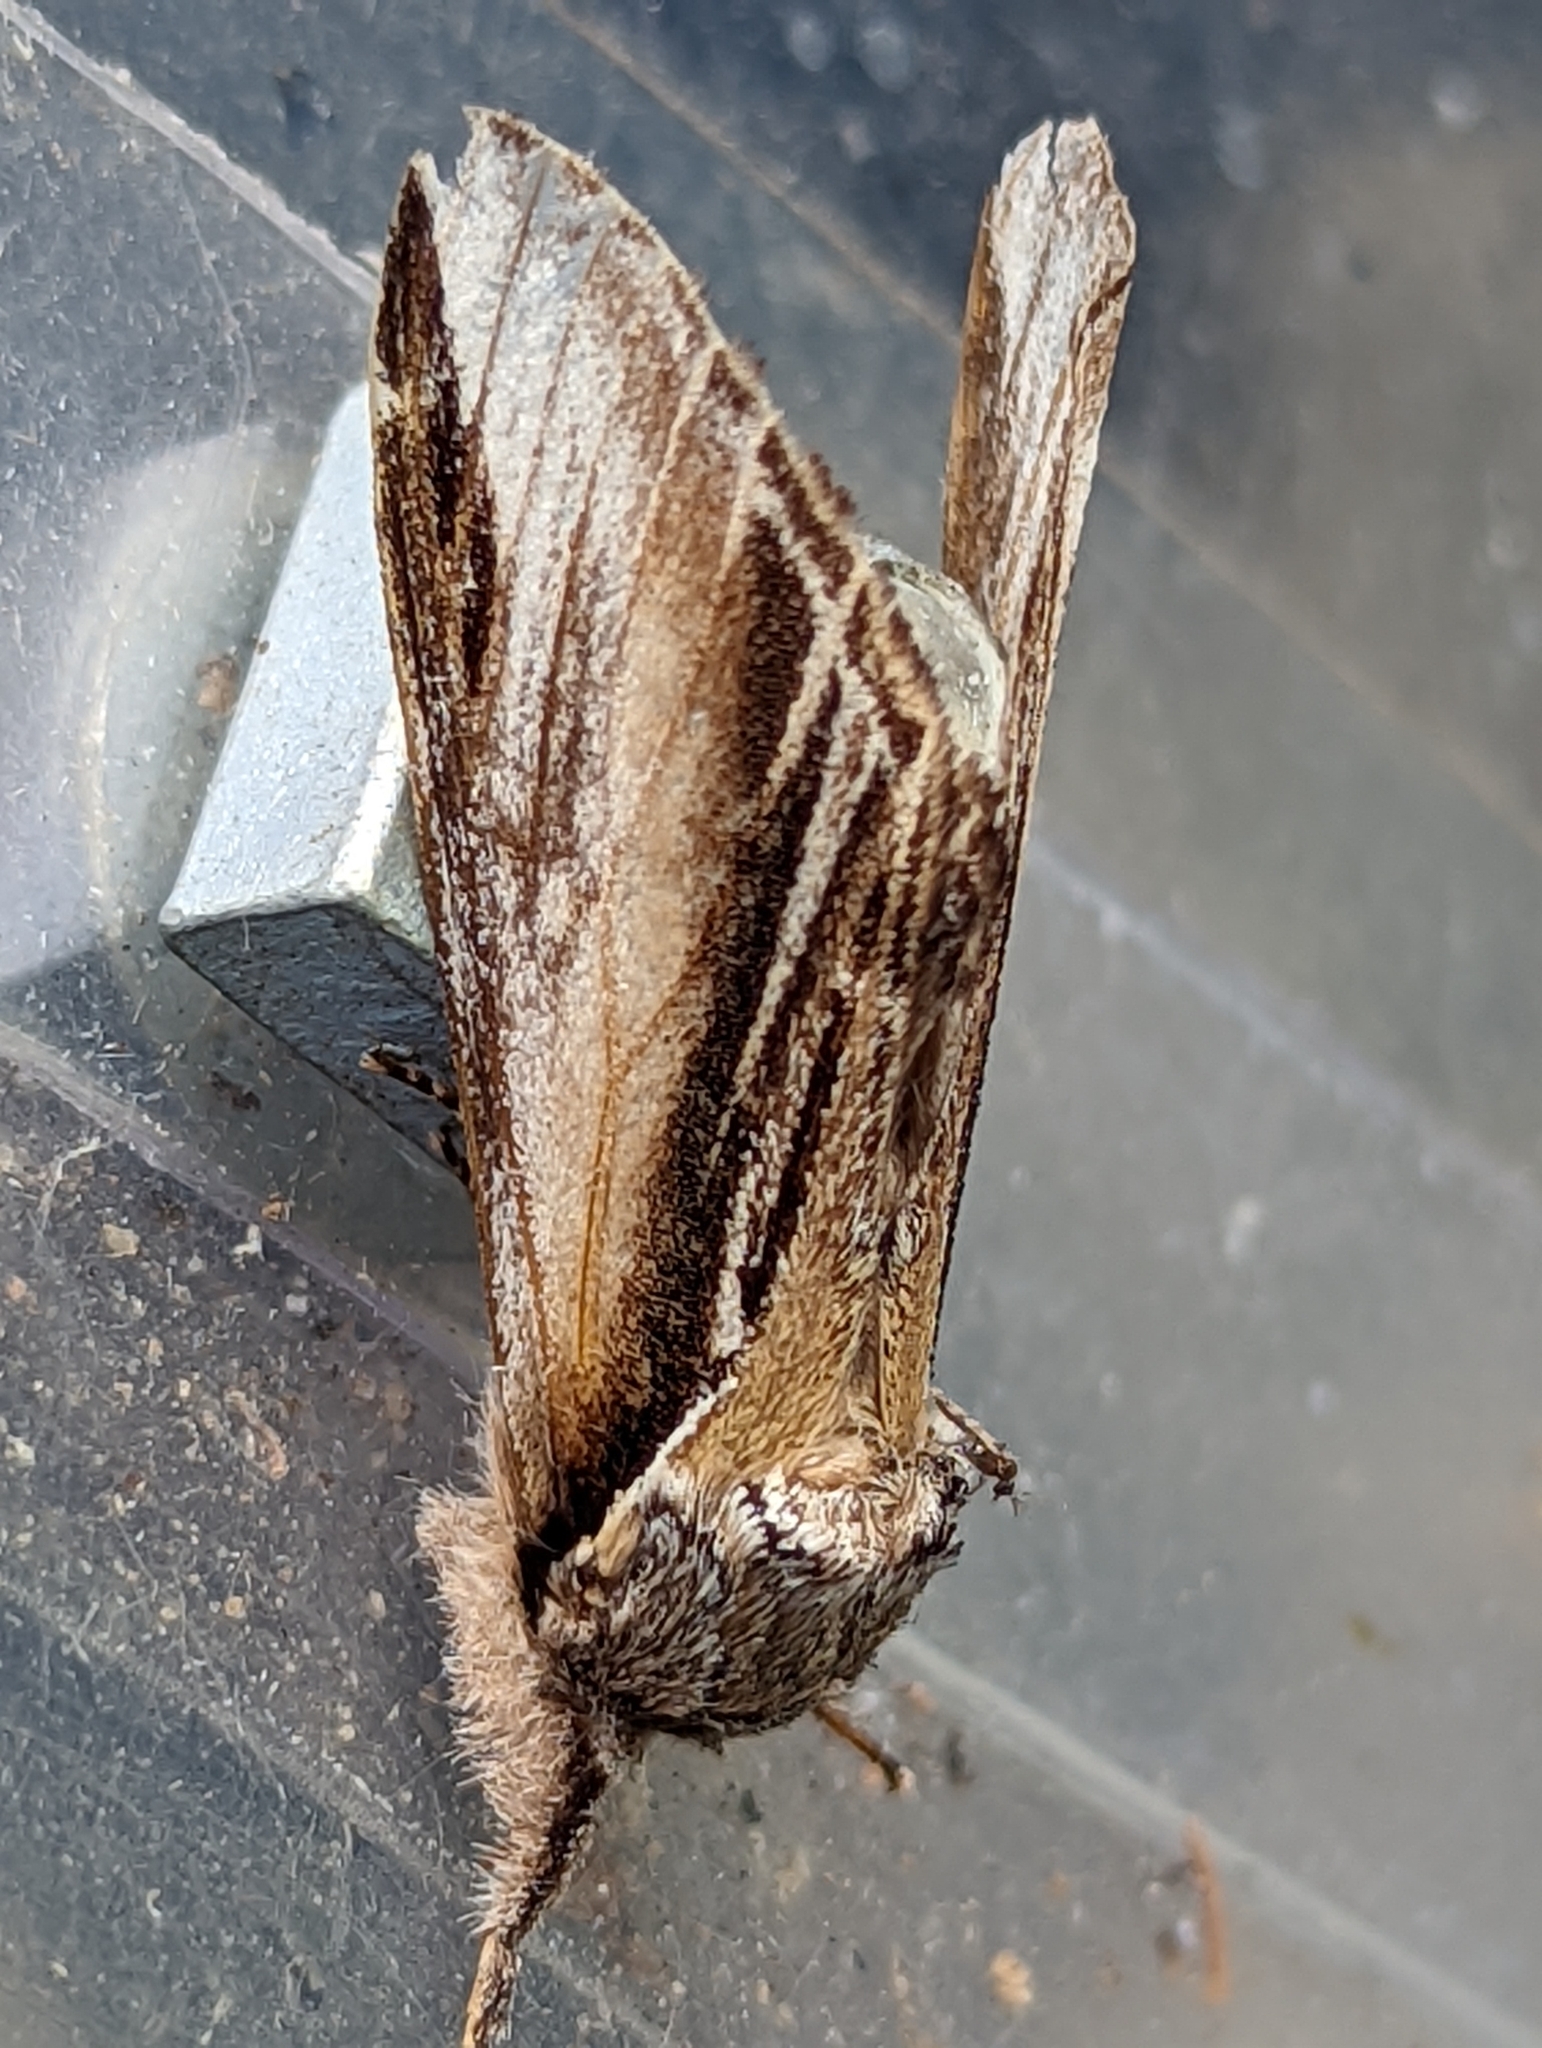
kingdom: Animalia
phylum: Arthropoda
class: Insecta
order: Lepidoptera
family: Notodontidae
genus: Pheosia
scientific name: Pheosia tremula
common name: Swallow prominent
